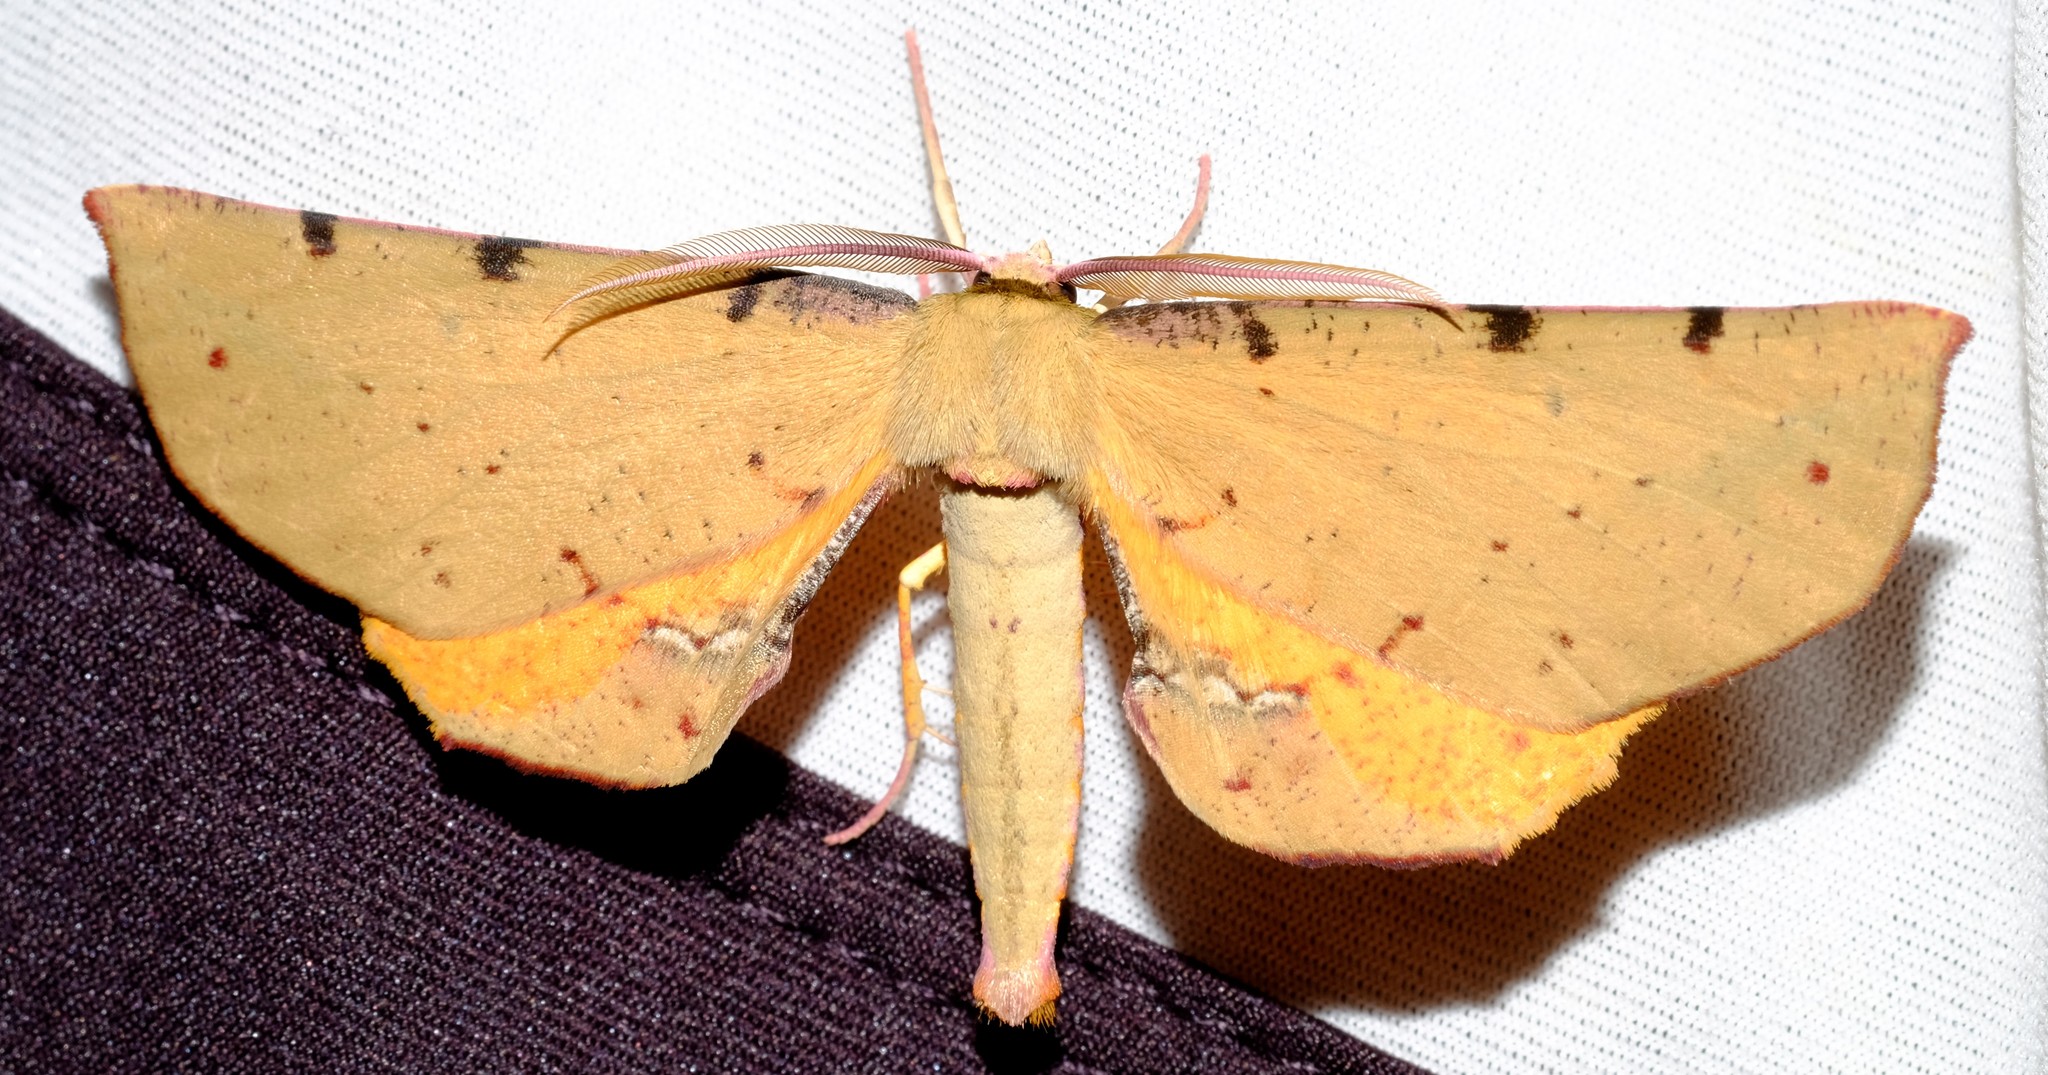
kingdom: Animalia
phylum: Arthropoda
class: Insecta
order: Lepidoptera
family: Geometridae
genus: Parepisparis
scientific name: Parepisparis lutosaria
